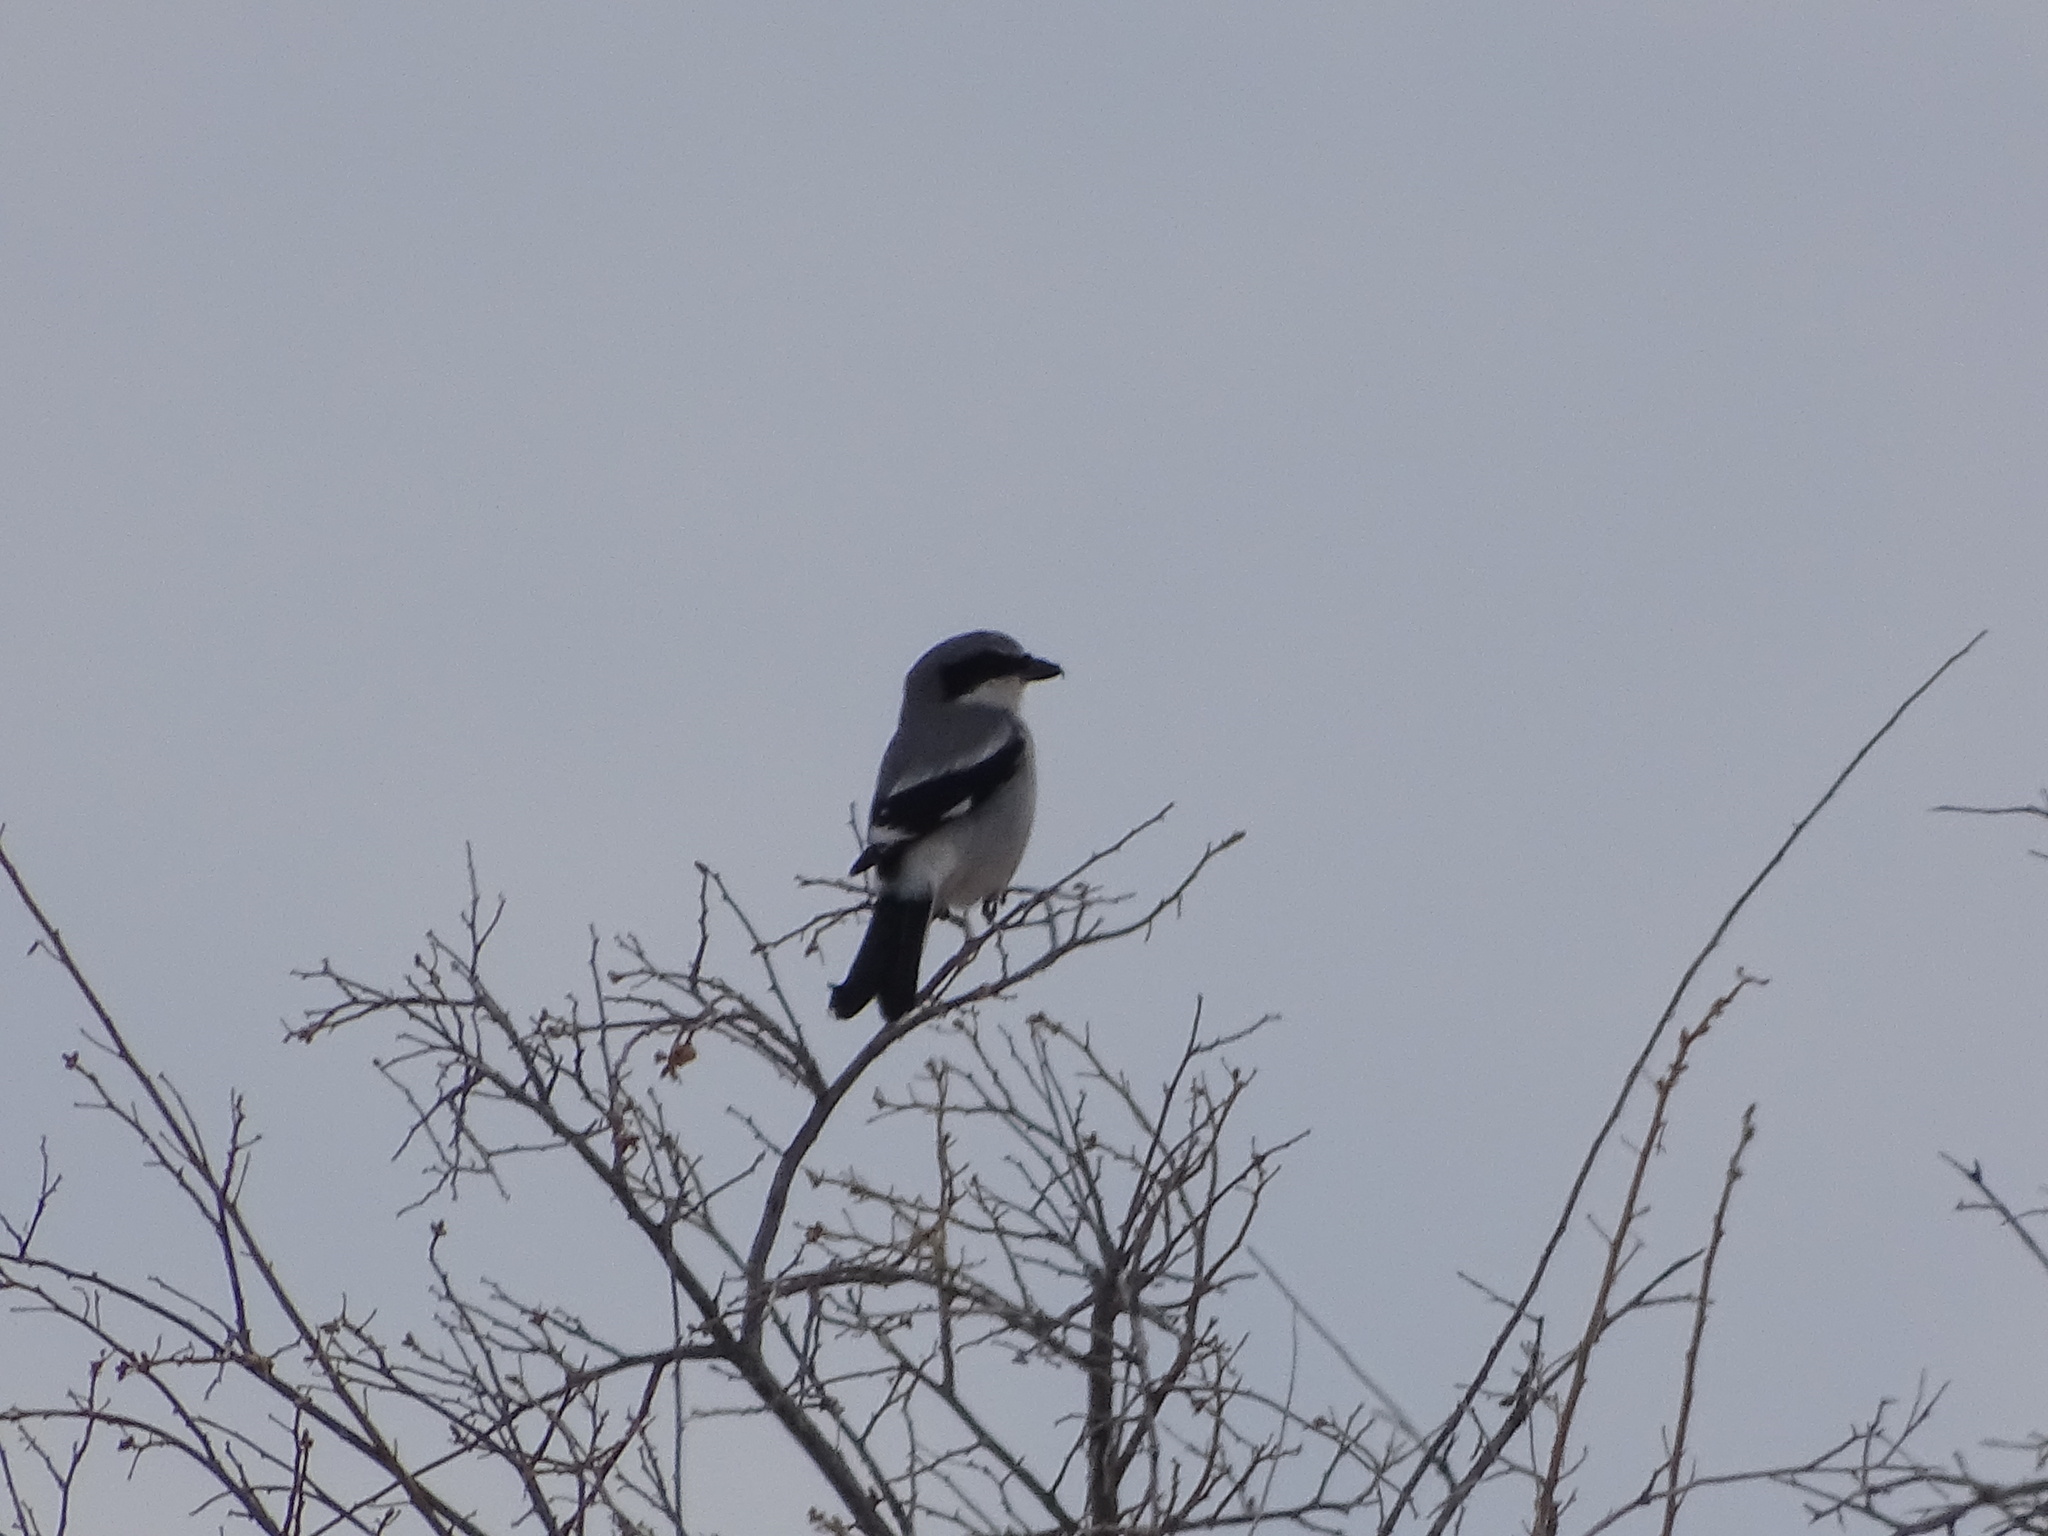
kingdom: Animalia
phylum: Chordata
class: Aves
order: Passeriformes
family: Laniidae
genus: Lanius
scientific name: Lanius ludovicianus
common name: Loggerhead shrike
